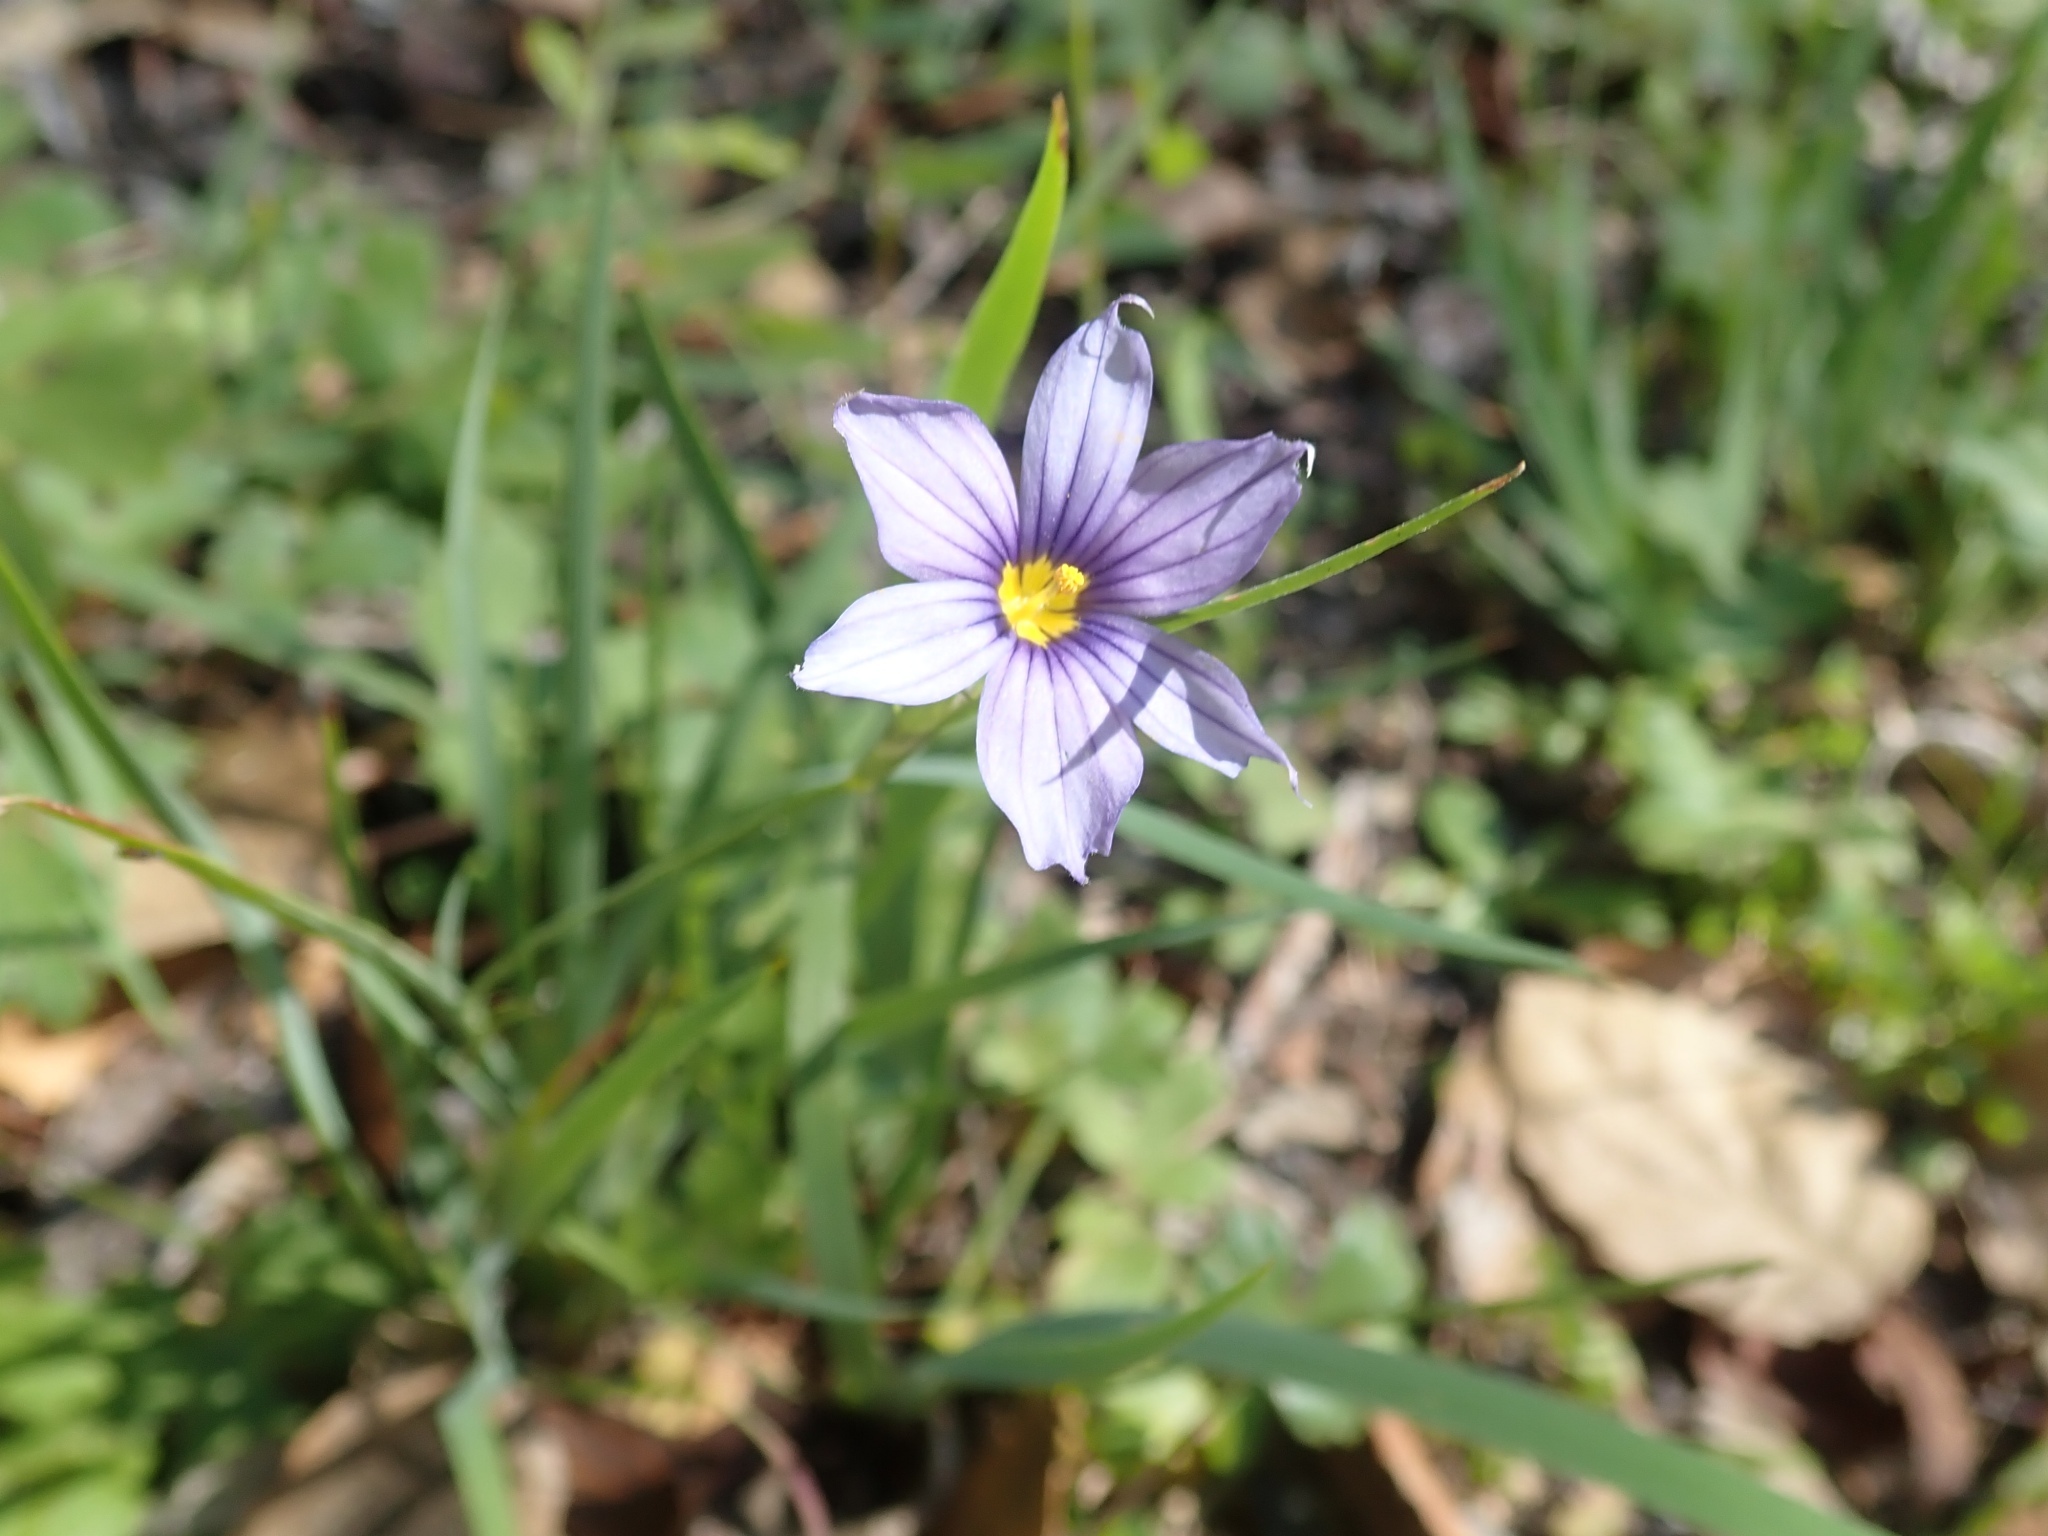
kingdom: Plantae
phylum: Tracheophyta
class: Liliopsida
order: Asparagales
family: Iridaceae
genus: Sisyrinchium
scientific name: Sisyrinchium bellum
